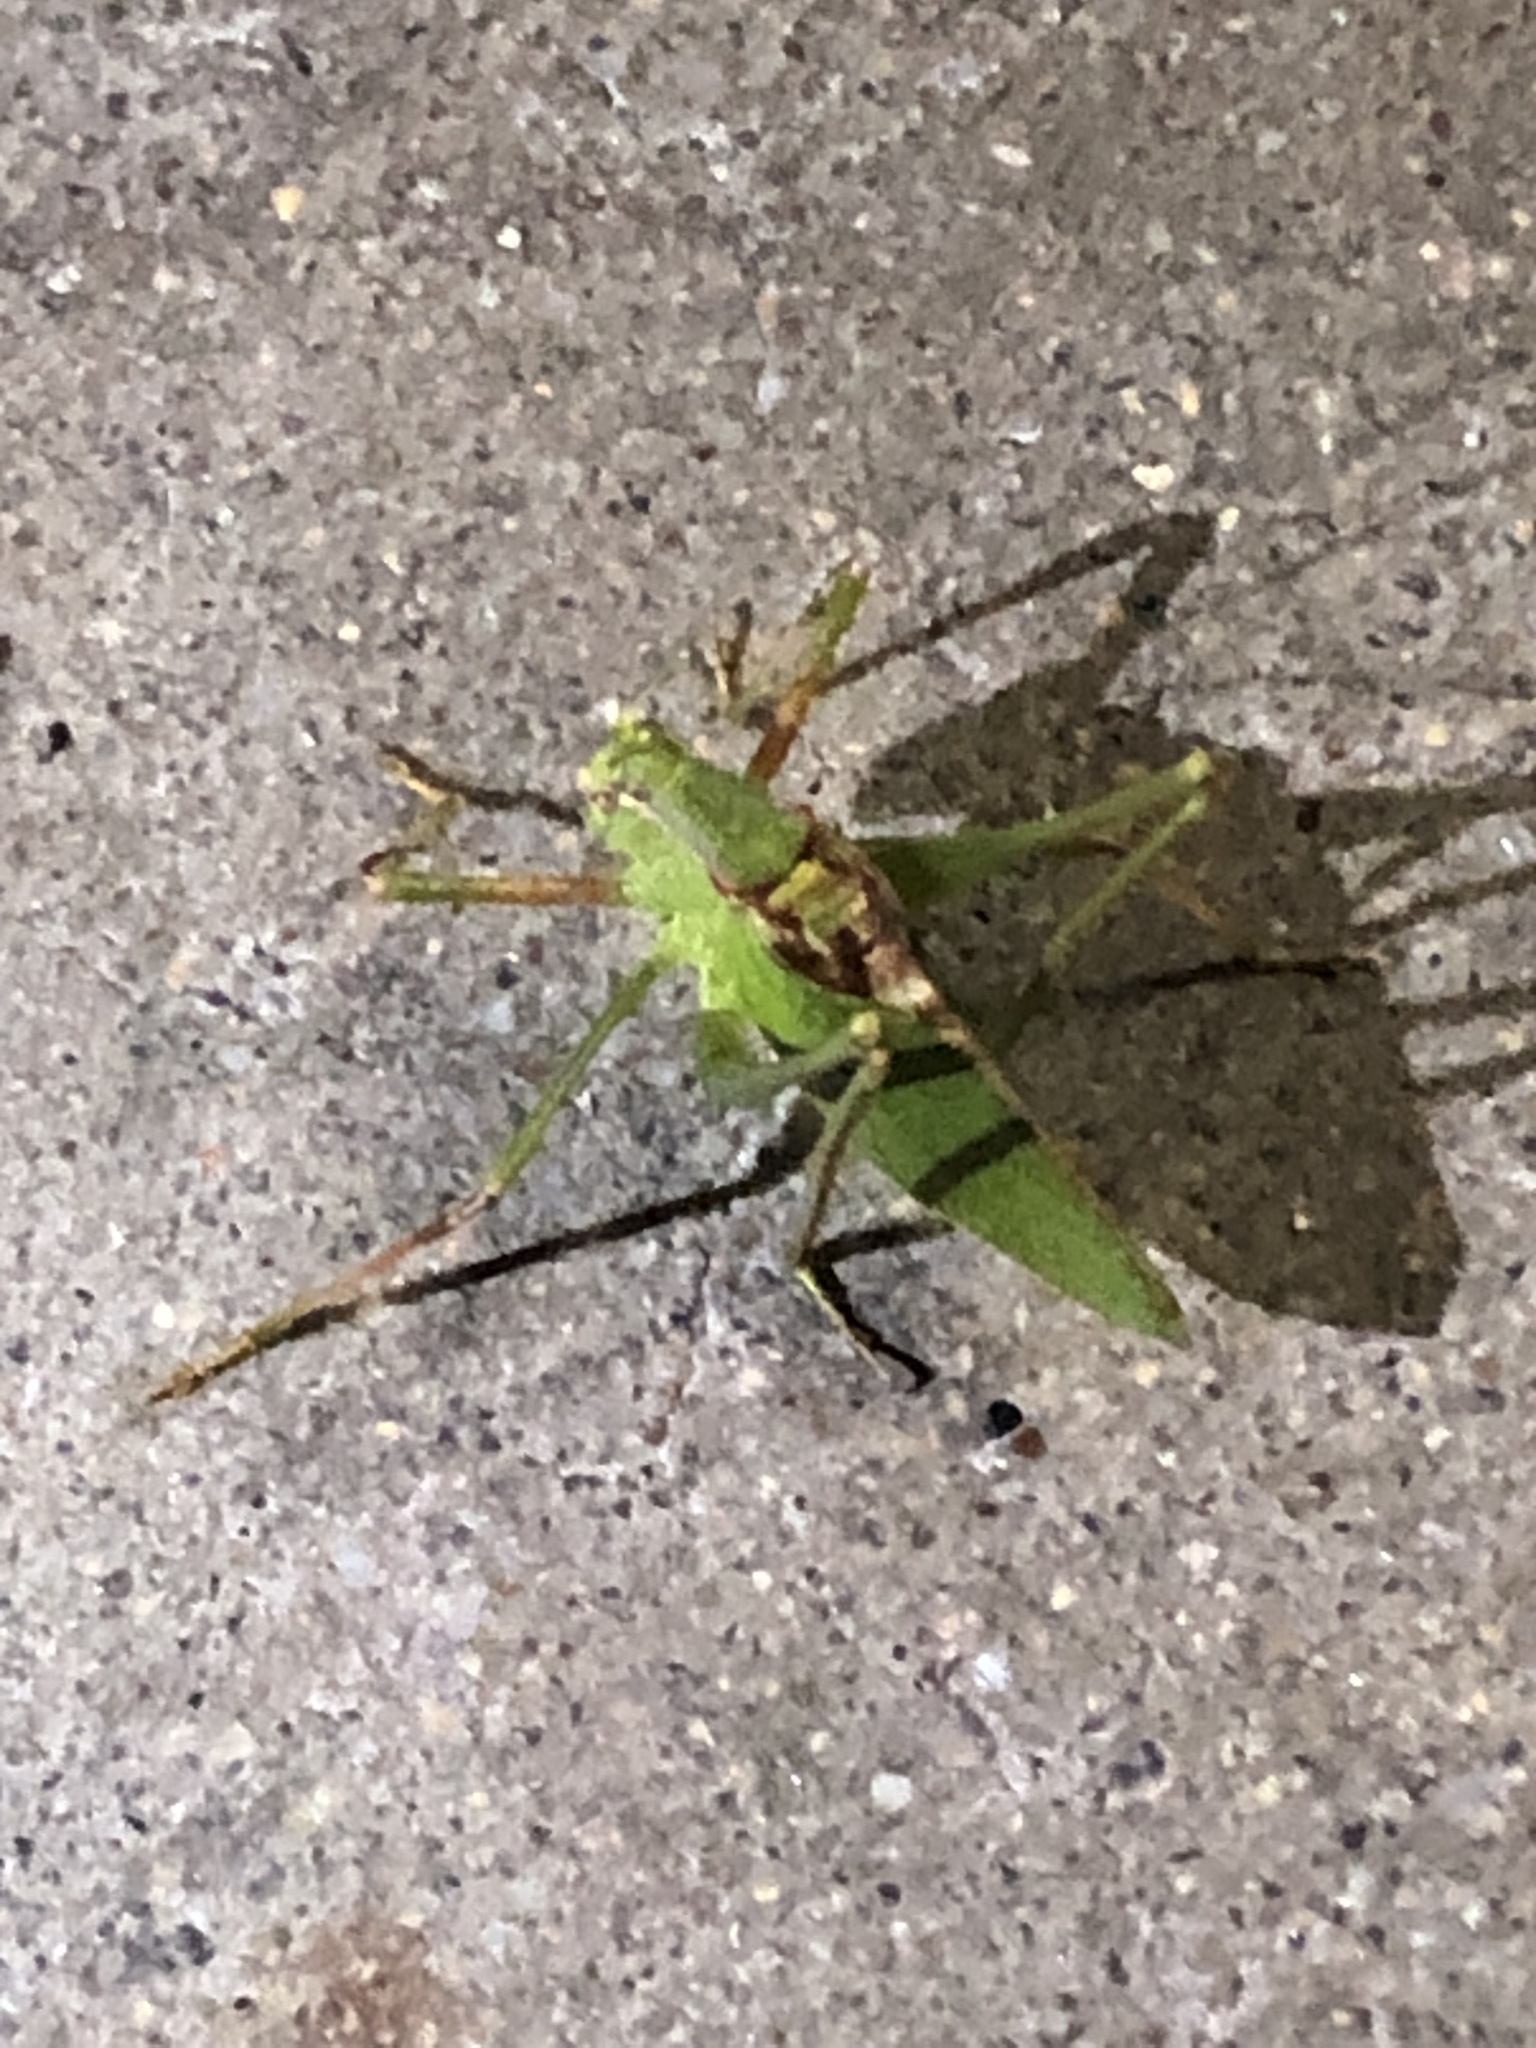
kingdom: Animalia
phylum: Arthropoda
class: Insecta
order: Orthoptera
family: Tettigoniidae
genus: Platylyra
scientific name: Platylyra californica
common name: Chaparral false katydid
